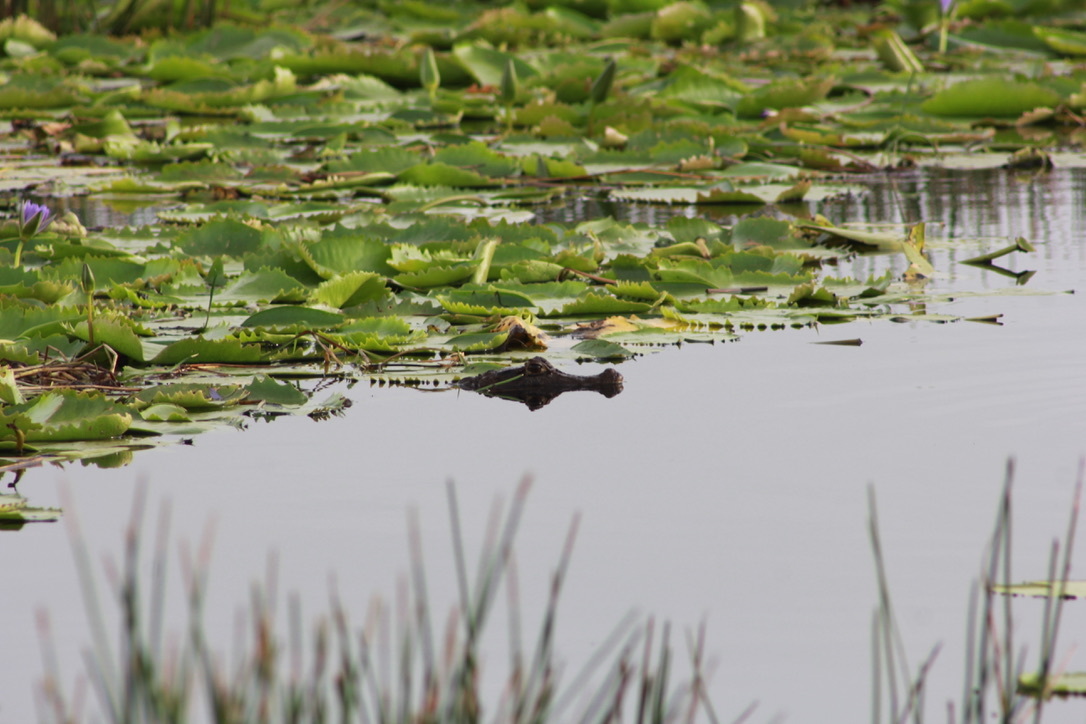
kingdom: Animalia
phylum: Chordata
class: Crocodylia
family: Alligatoridae
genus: Caiman
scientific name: Caiman crocodilus
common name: Common caiman
